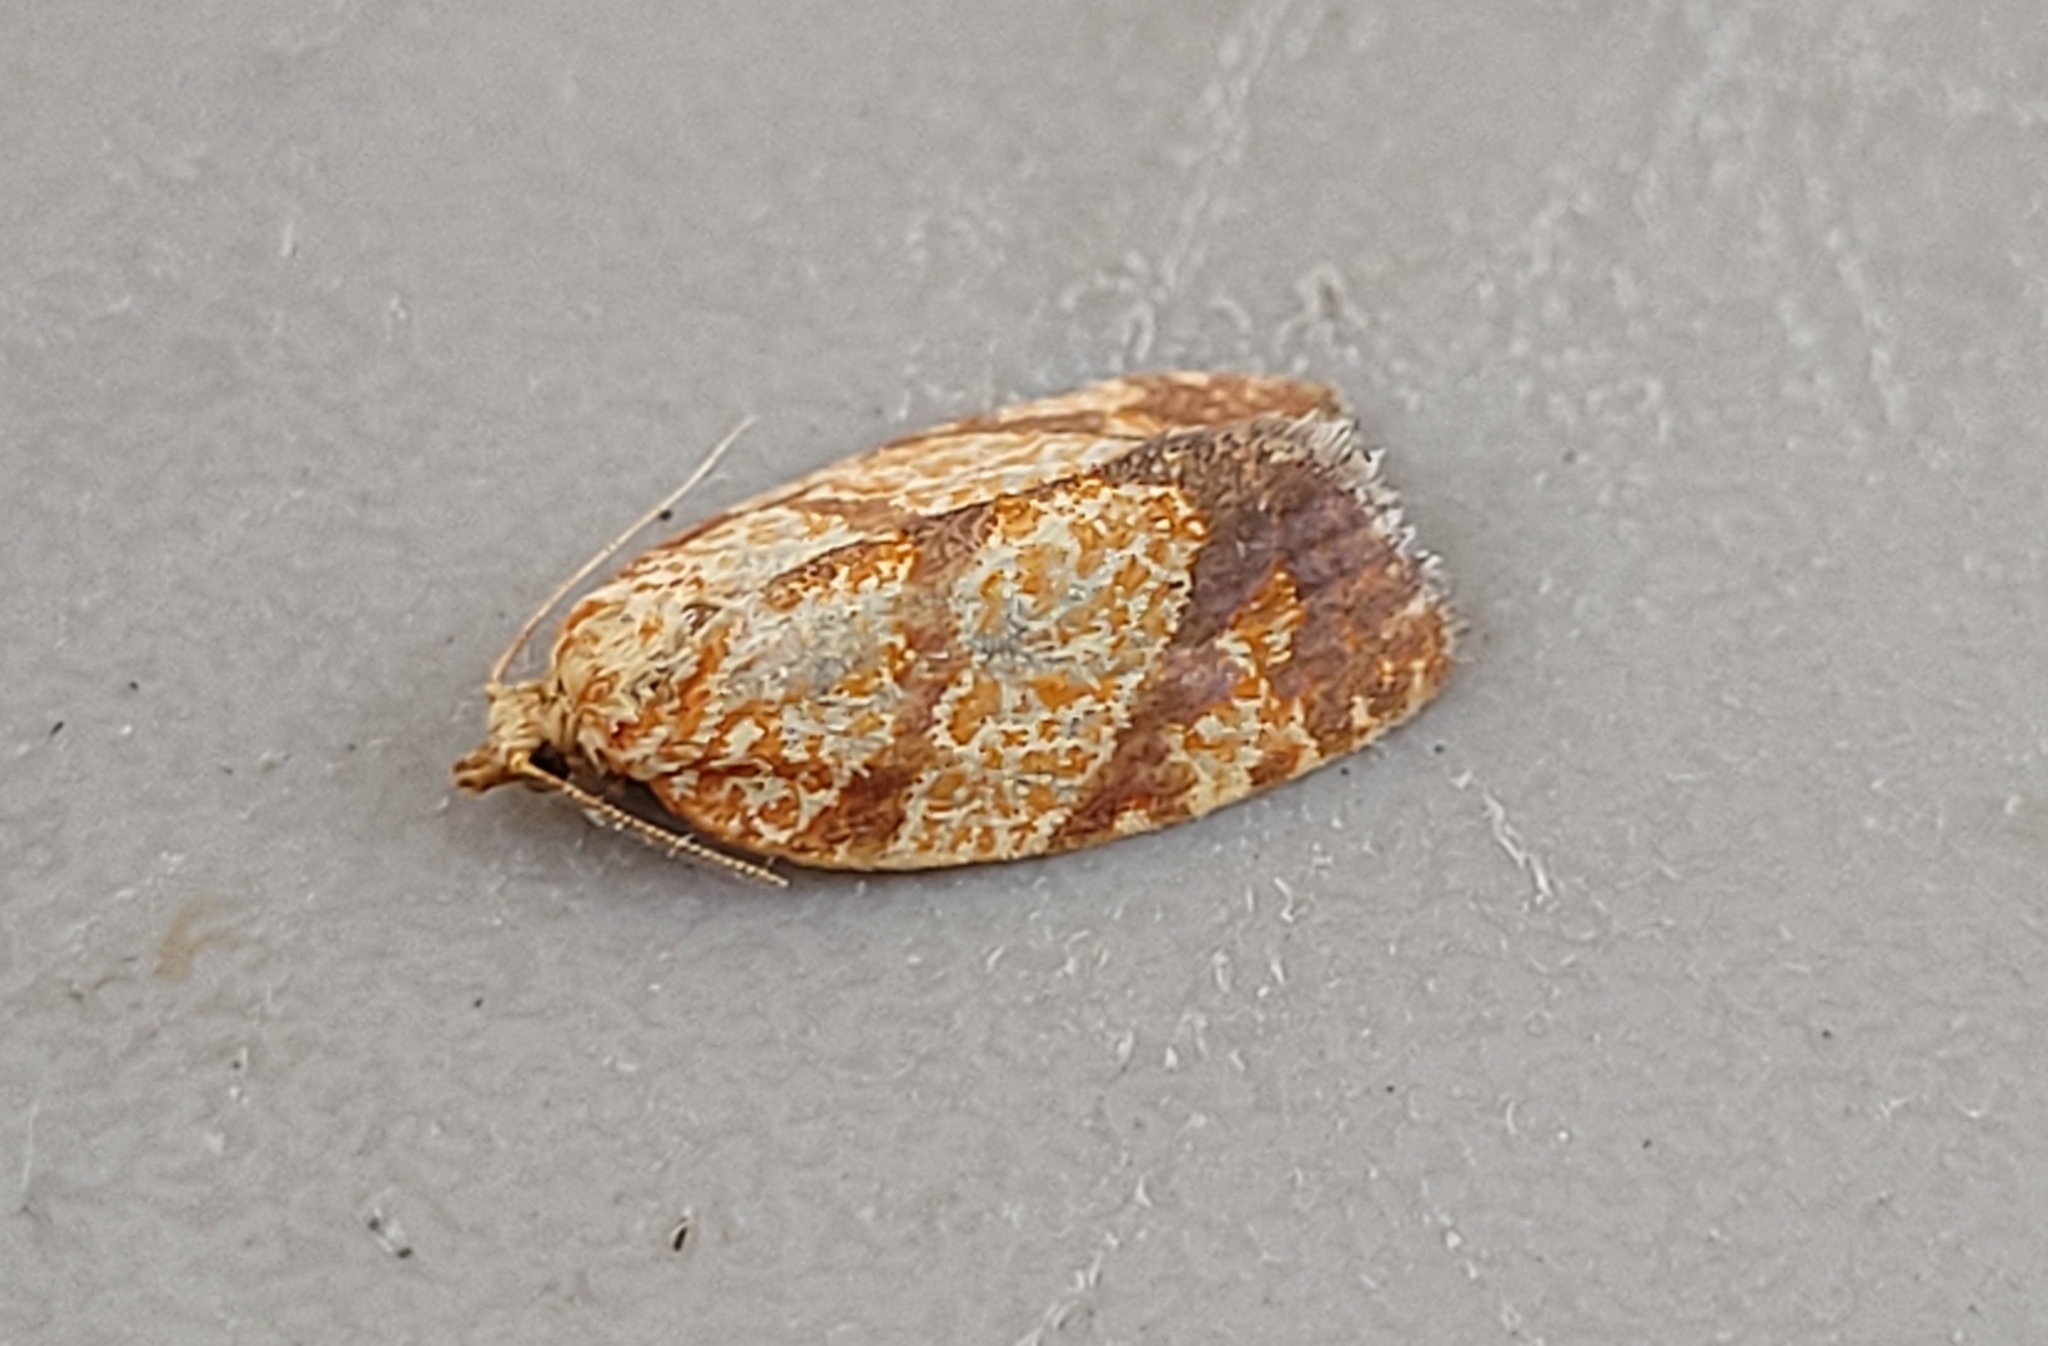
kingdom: Animalia
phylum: Arthropoda
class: Insecta
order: Lepidoptera
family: Tortricidae
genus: Argyrotaenia
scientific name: Argyrotaenia quadrifasciana
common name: Four-lined leafroller moth
